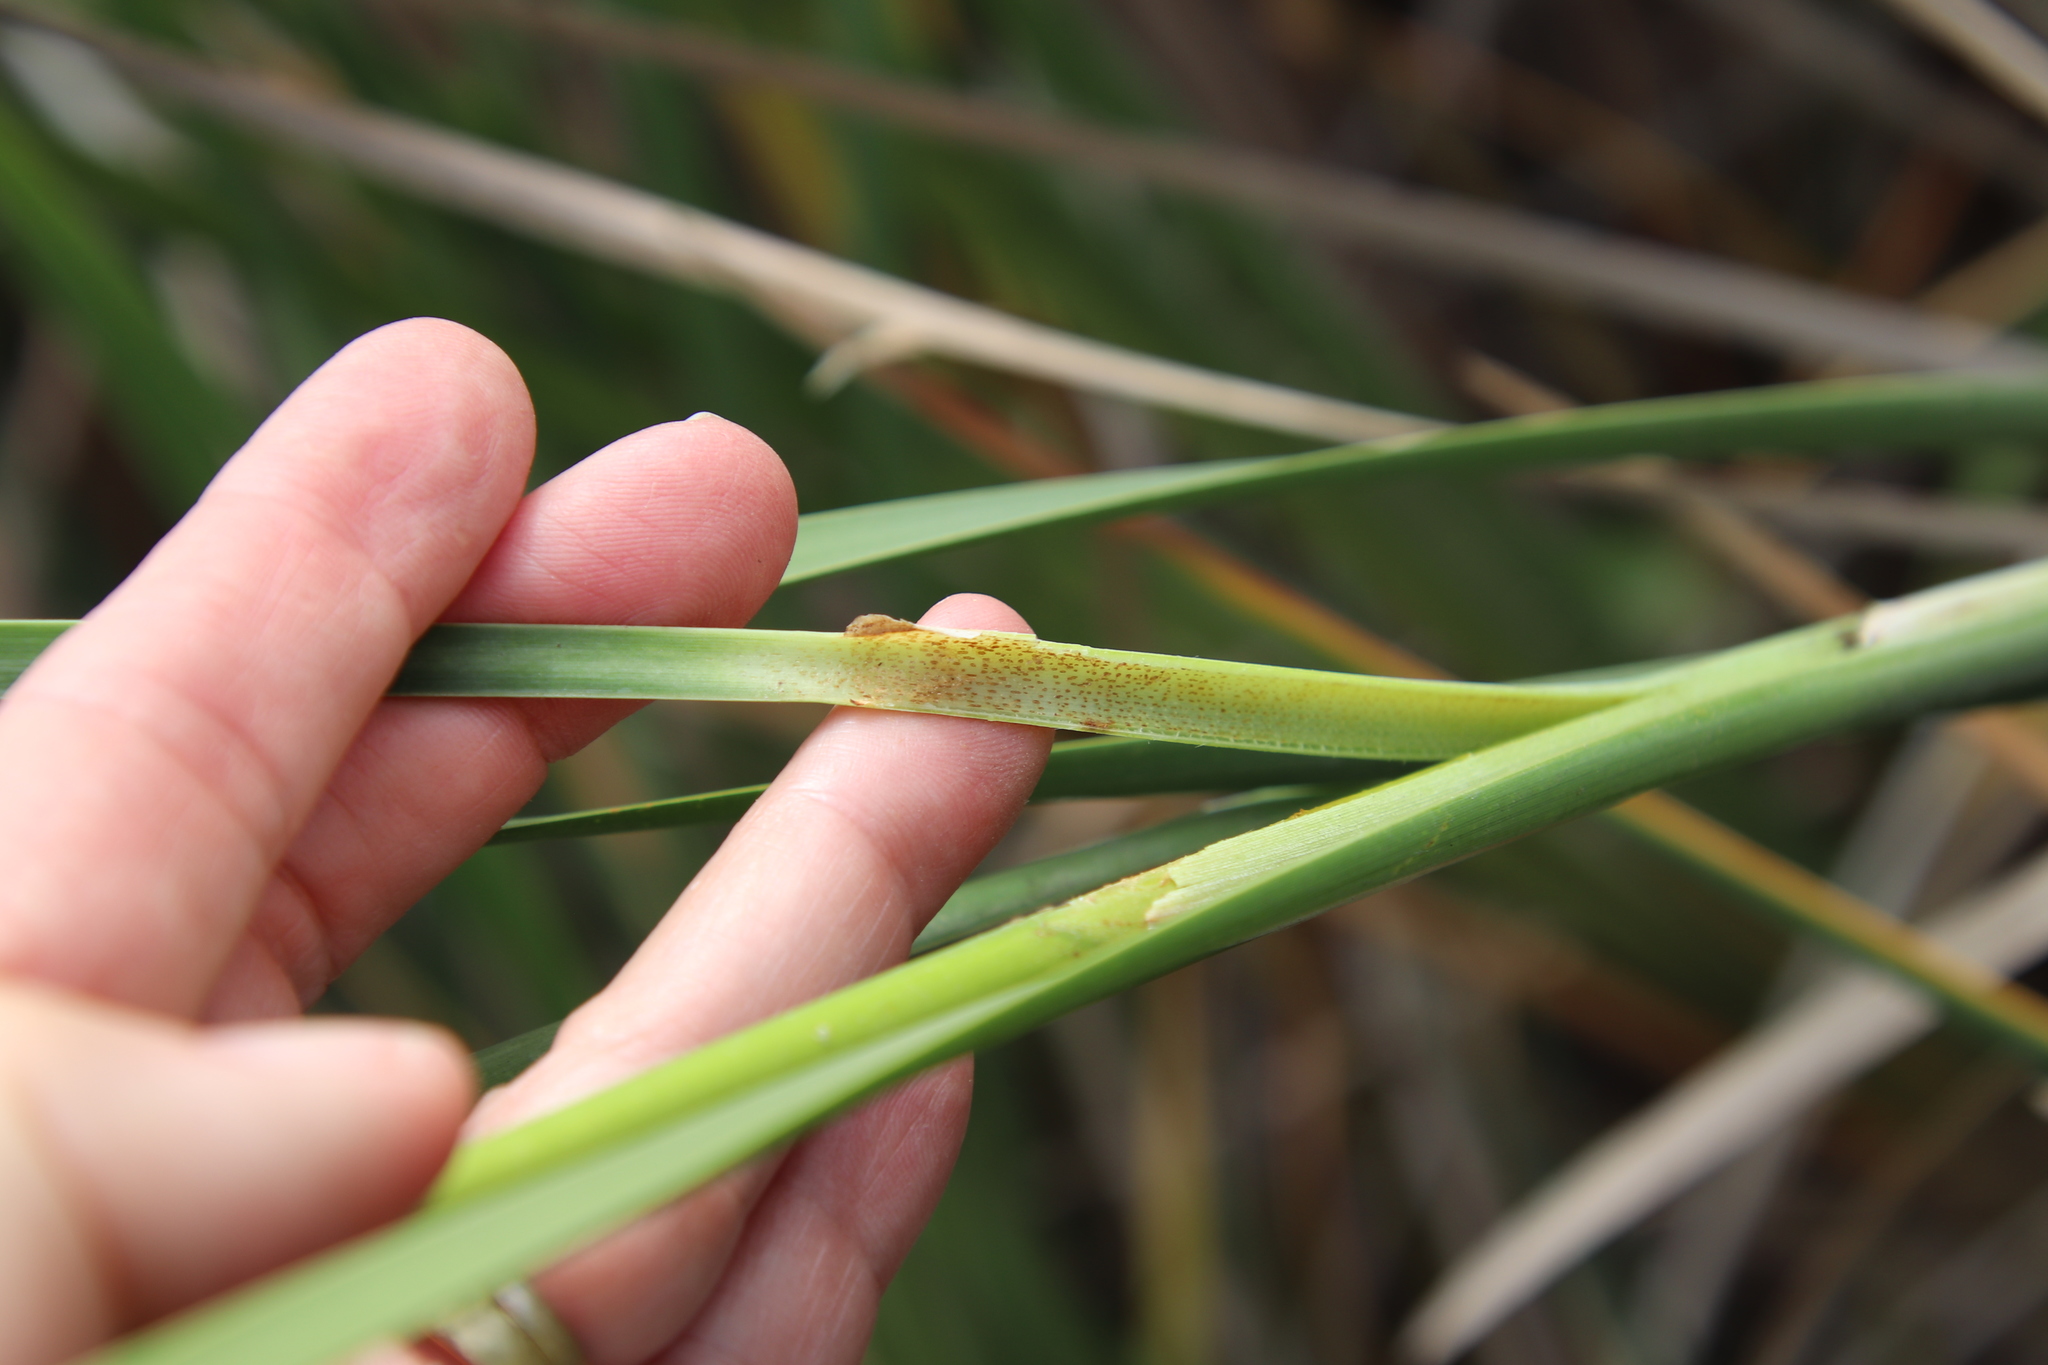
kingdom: Plantae
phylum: Tracheophyta
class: Liliopsida
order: Poales
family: Typhaceae
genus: Typha
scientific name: Typha domingensis
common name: Southern cattail
